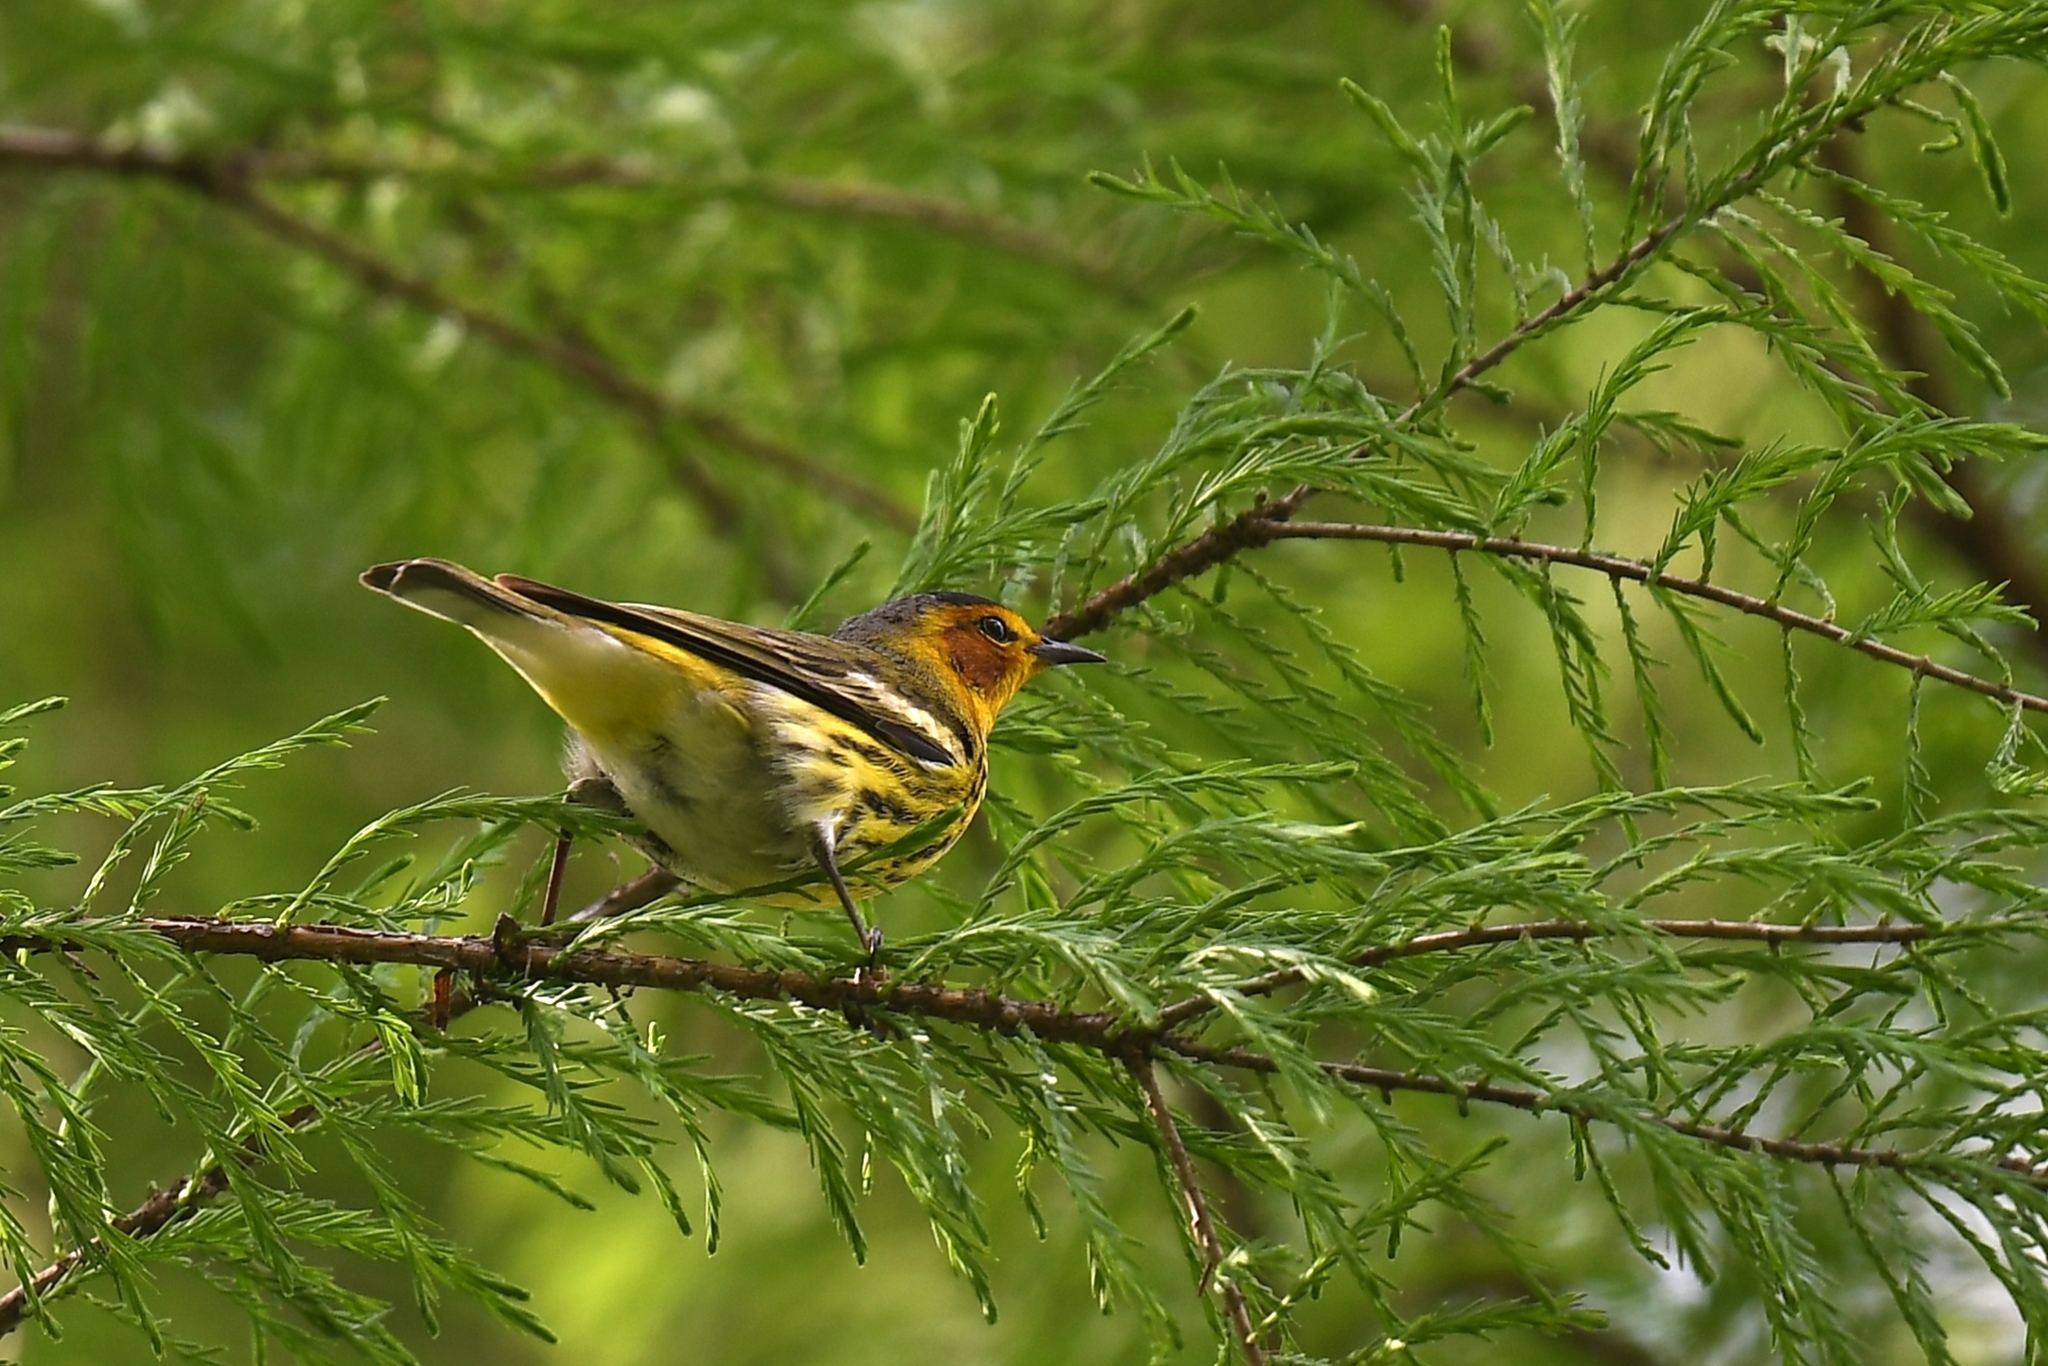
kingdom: Animalia
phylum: Chordata
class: Aves
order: Passeriformes
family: Parulidae
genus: Setophaga
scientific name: Setophaga tigrina
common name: Cape may warbler
